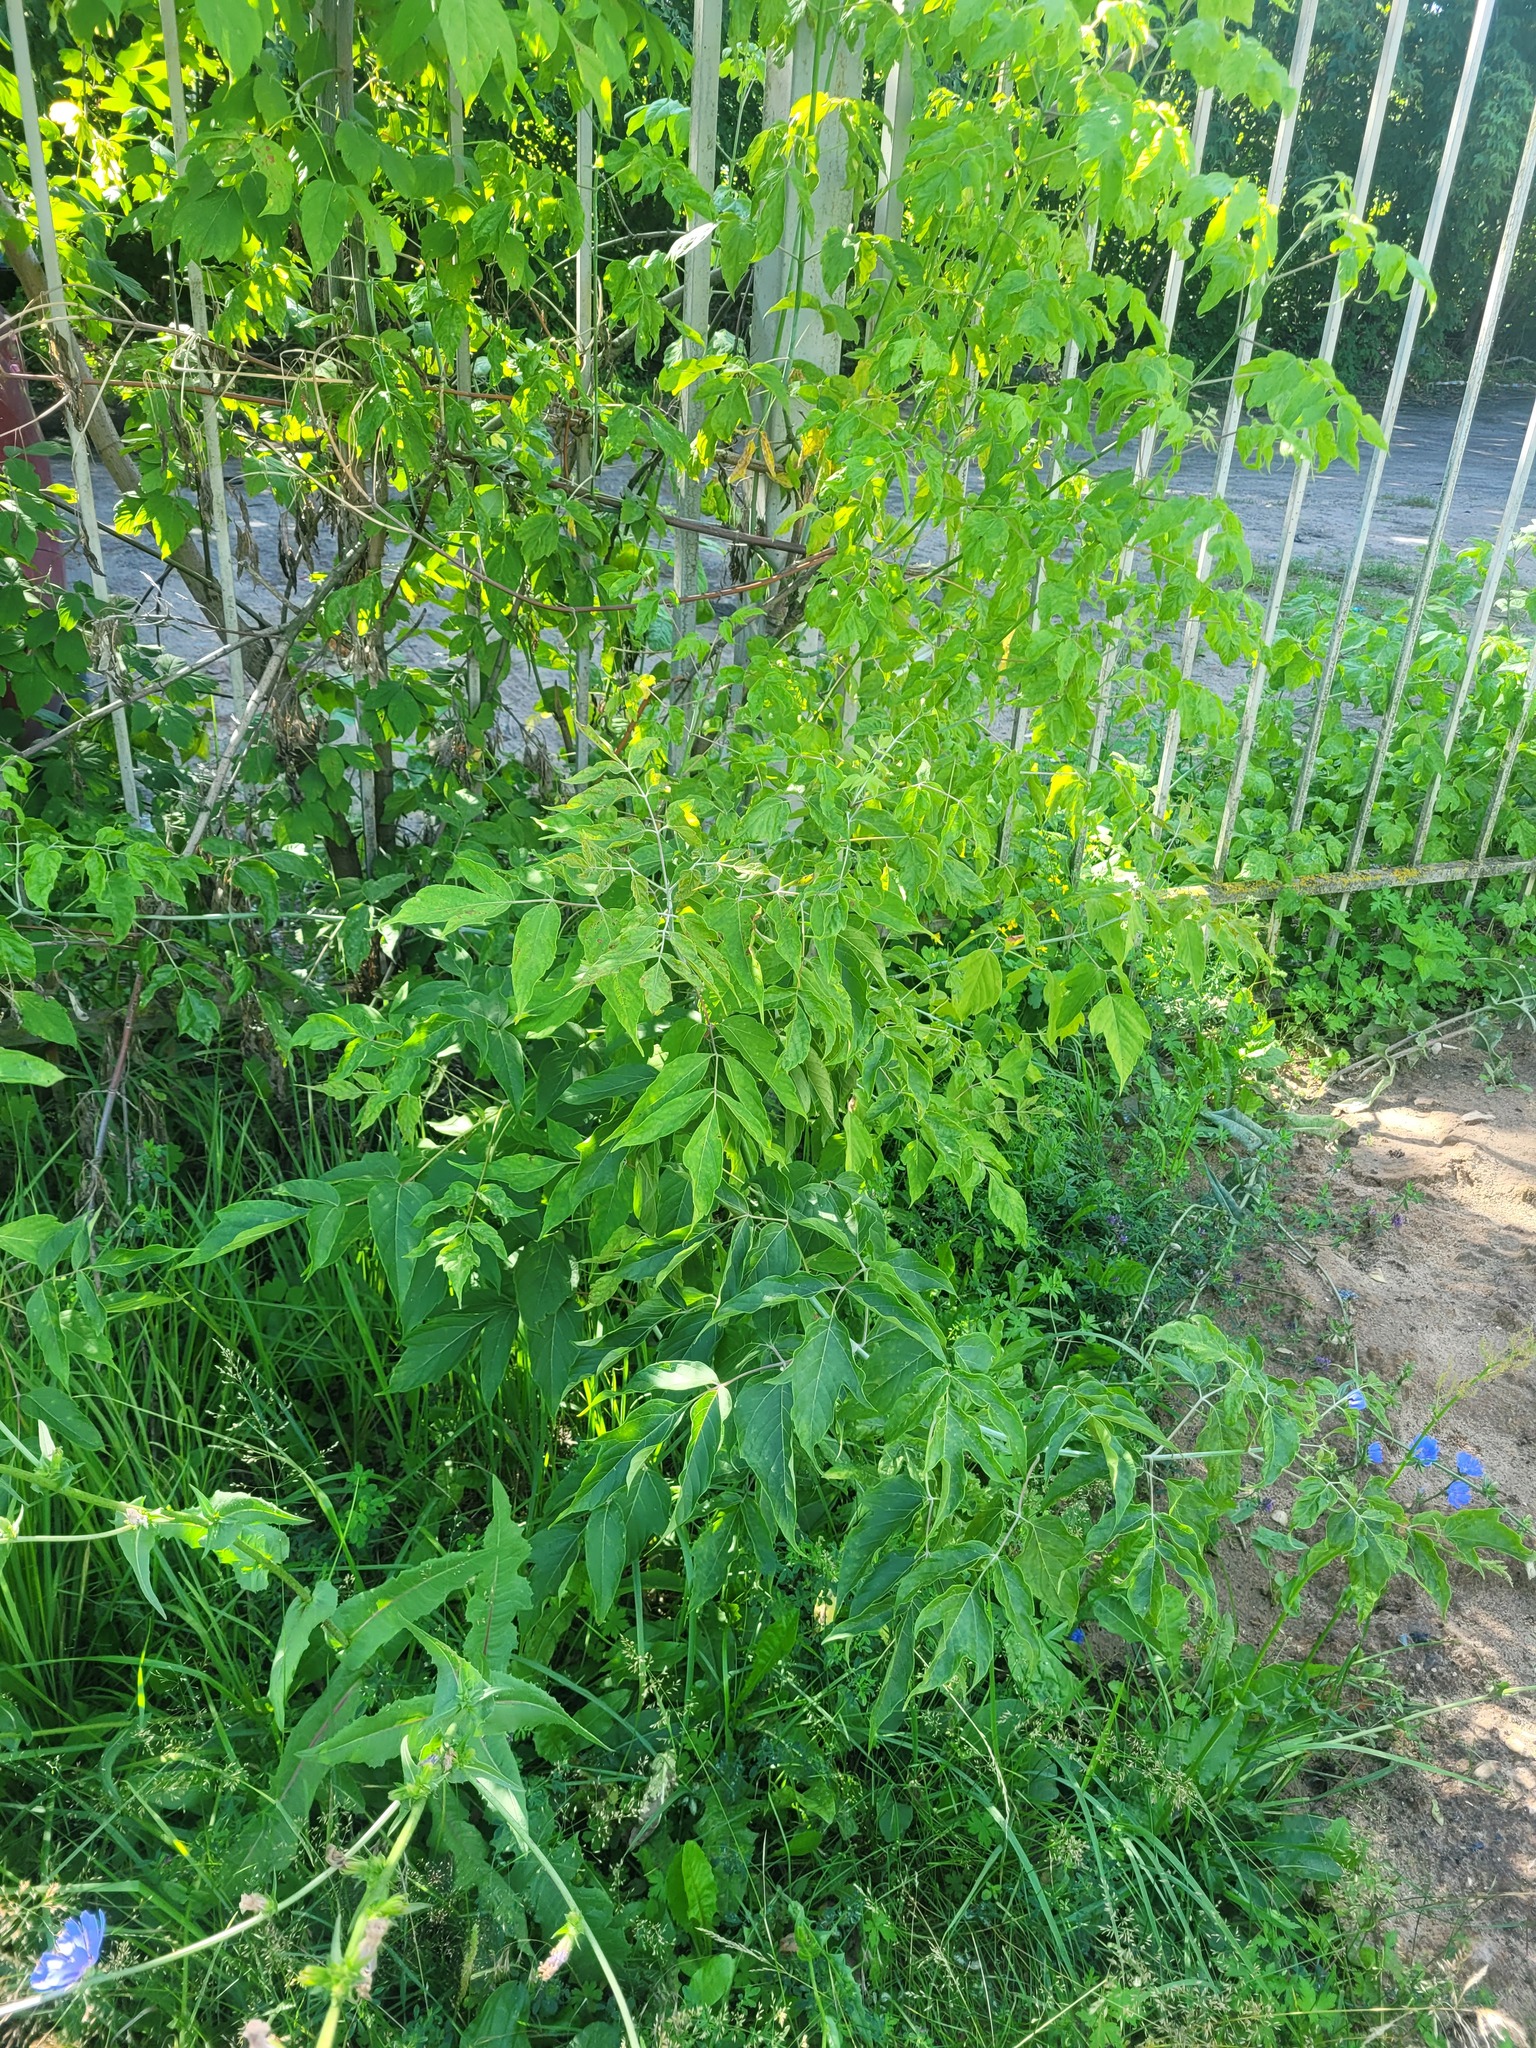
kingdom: Plantae
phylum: Tracheophyta
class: Magnoliopsida
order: Sapindales
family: Sapindaceae
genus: Acer
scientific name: Acer negundo
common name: Ashleaf maple
